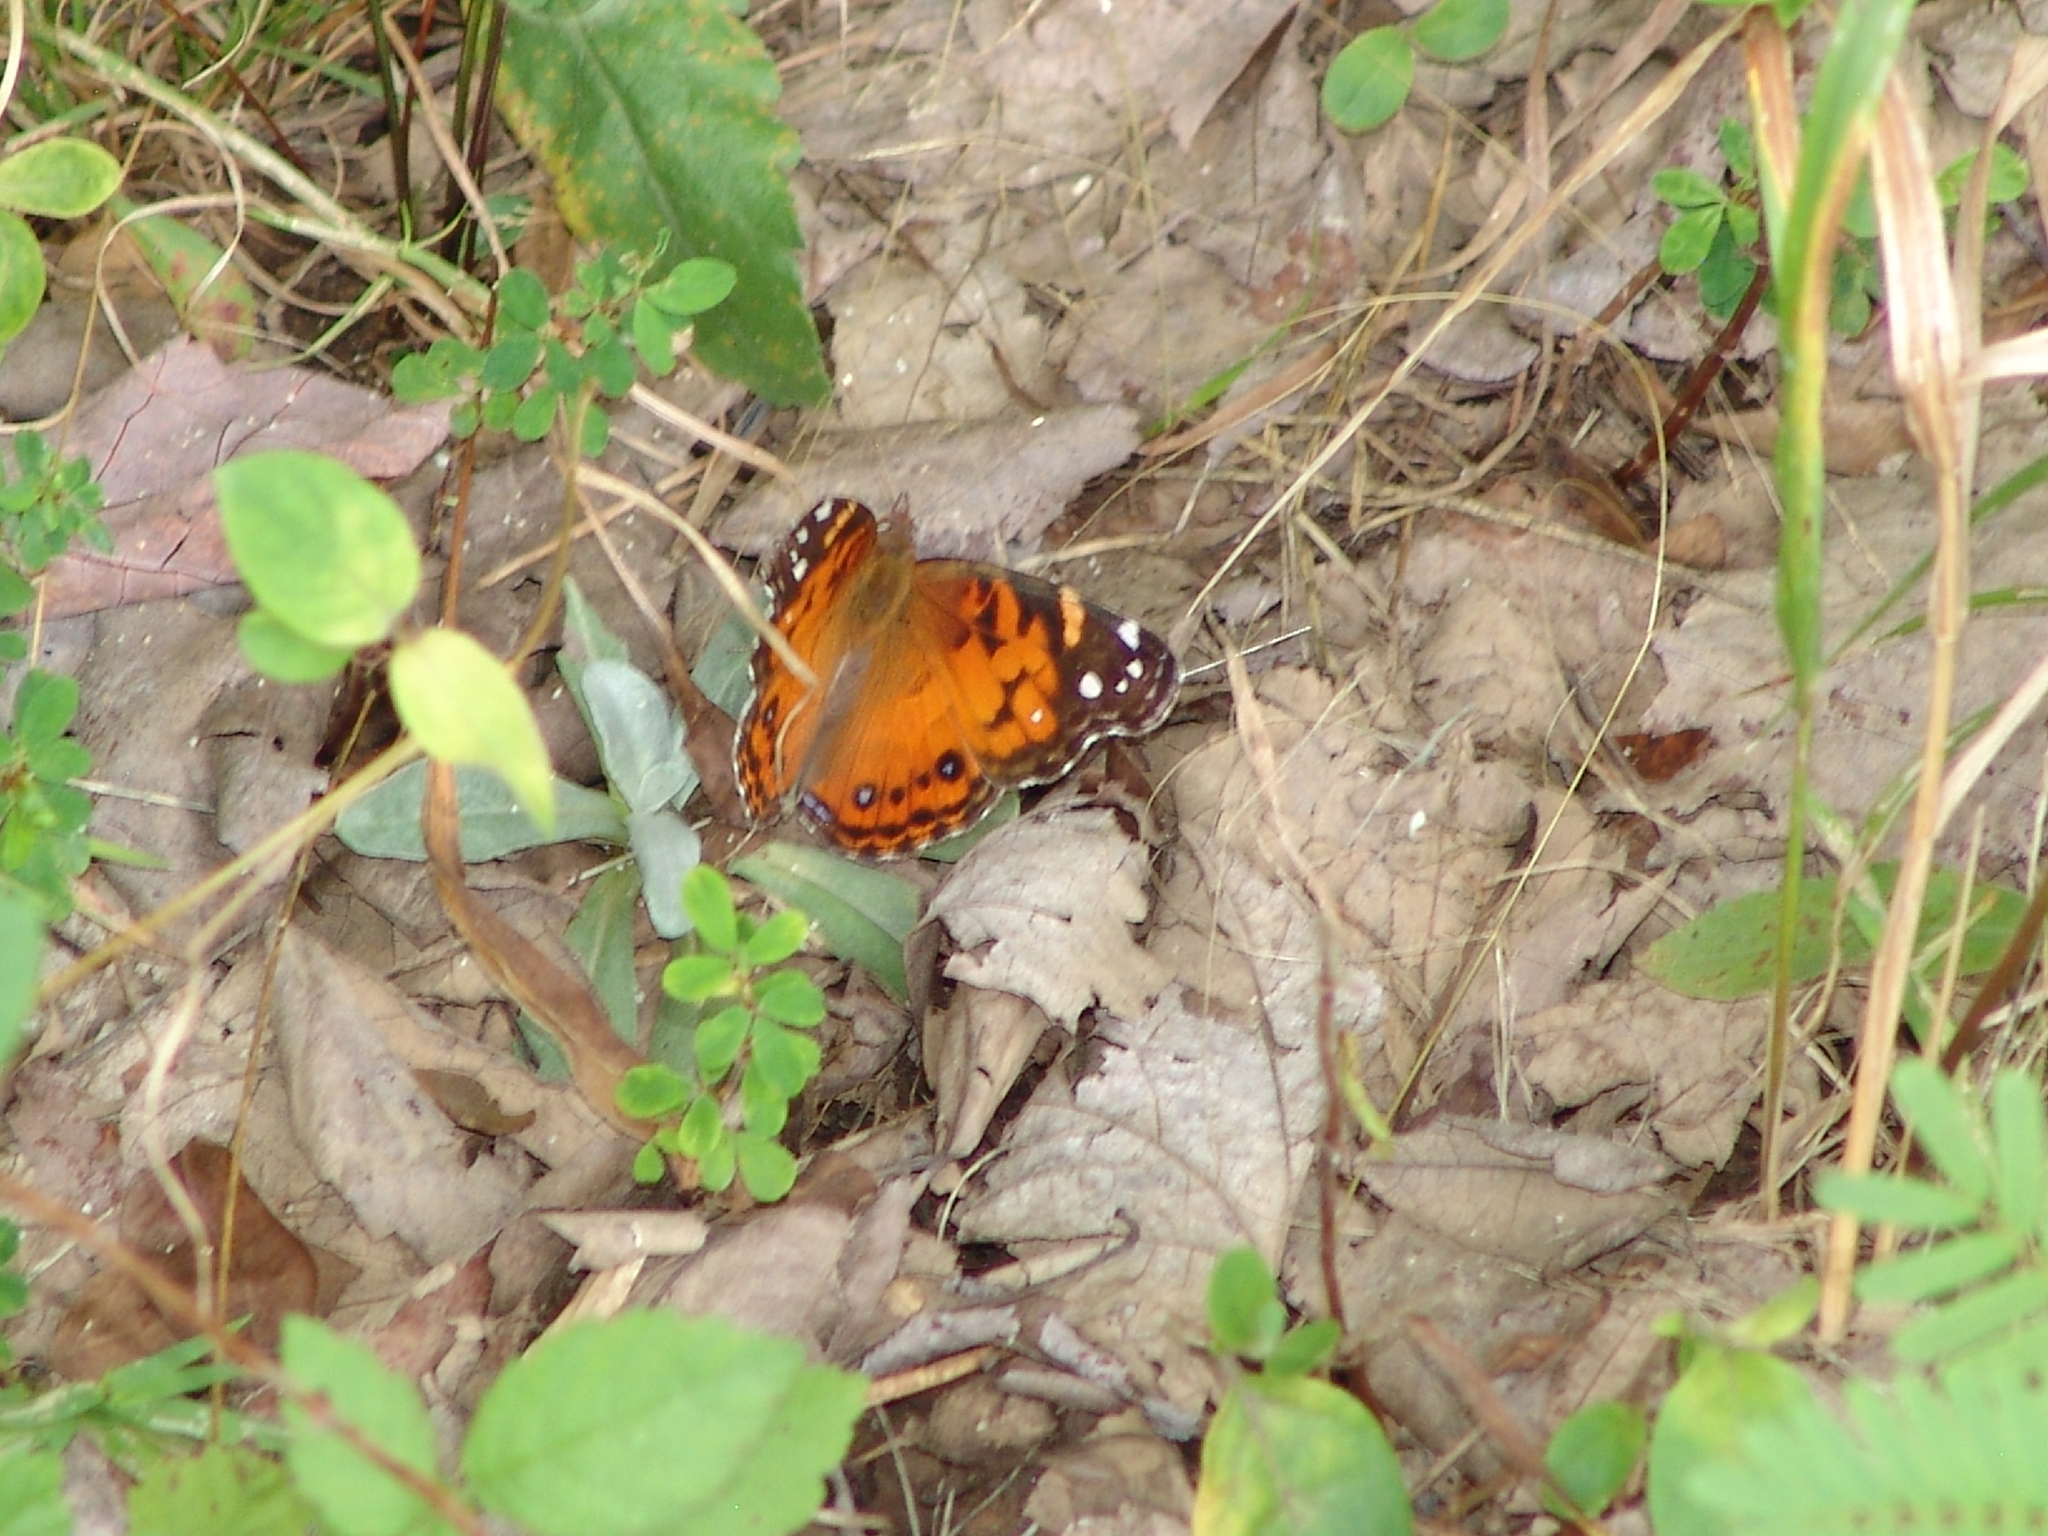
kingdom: Animalia
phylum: Arthropoda
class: Insecta
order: Lepidoptera
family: Nymphalidae
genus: Vanessa
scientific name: Vanessa virginiensis
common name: American lady
